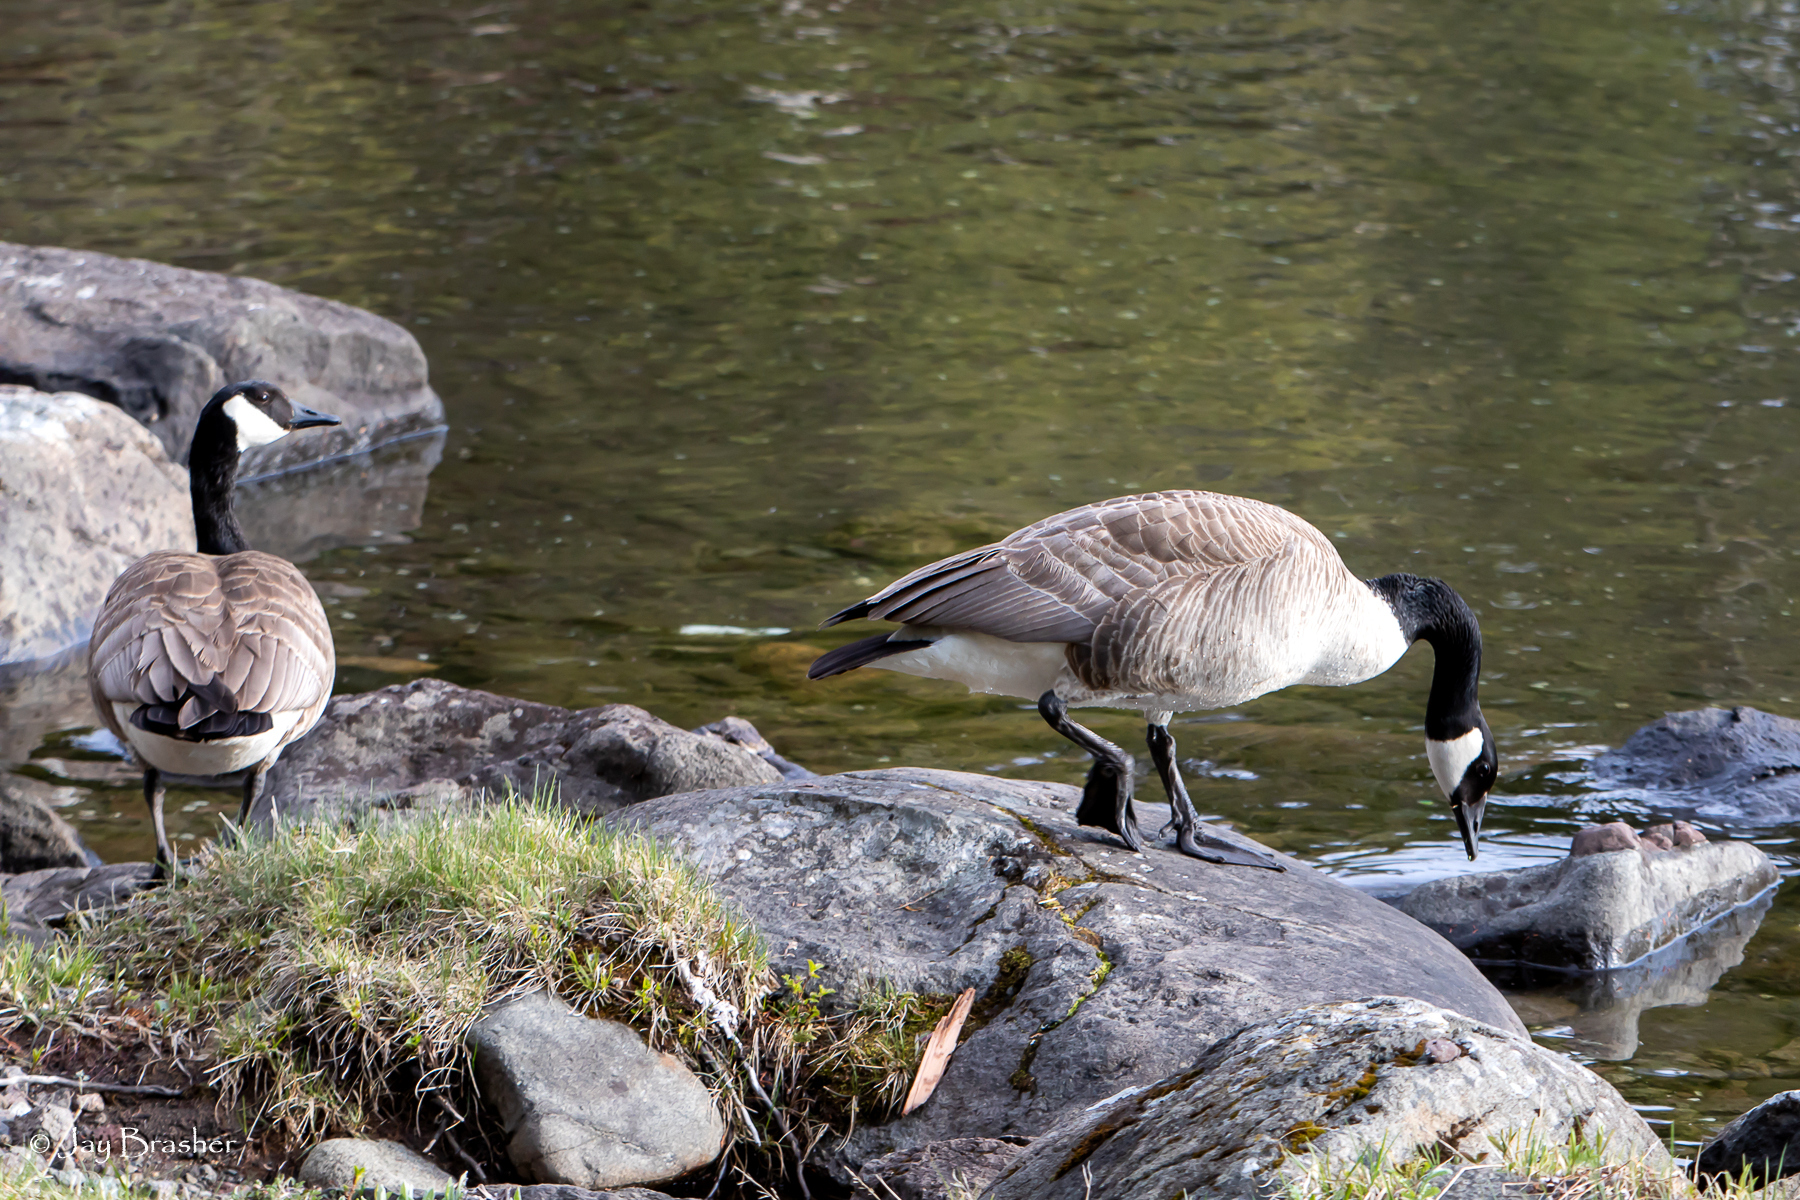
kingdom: Animalia
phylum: Chordata
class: Aves
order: Anseriformes
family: Anatidae
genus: Branta
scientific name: Branta canadensis
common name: Canada goose
